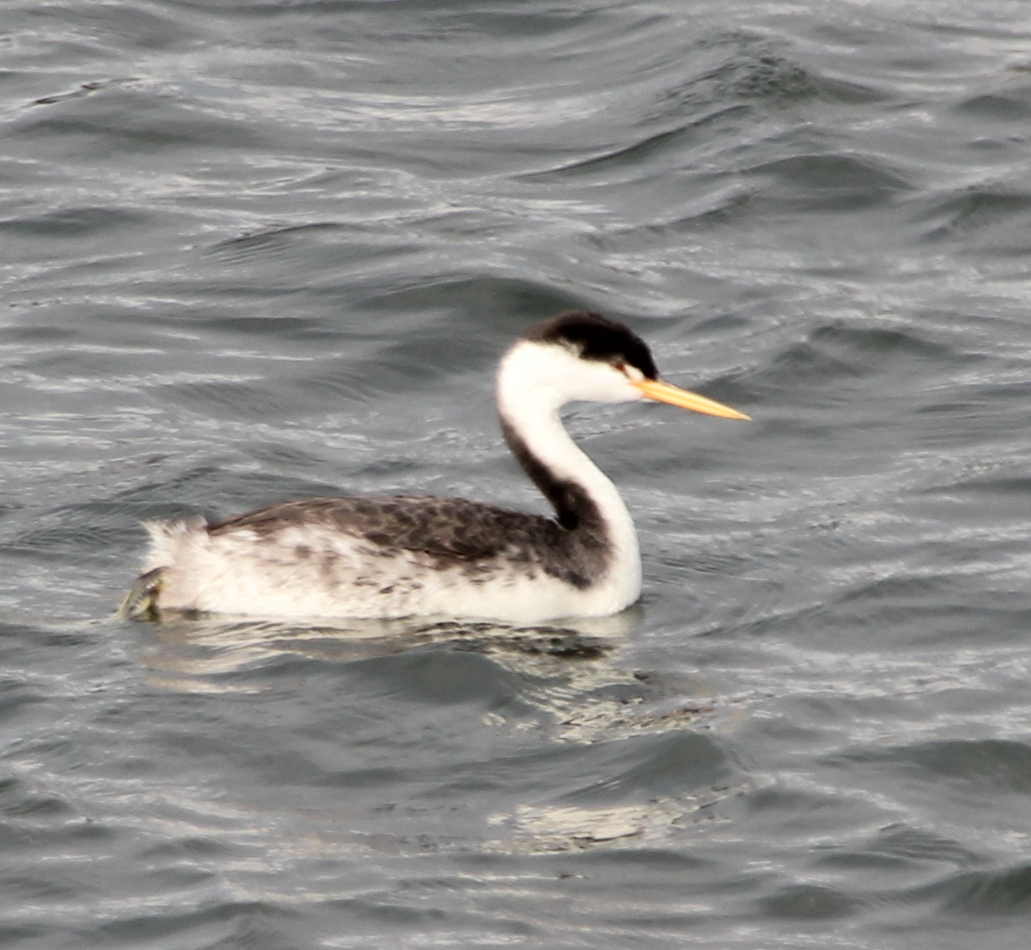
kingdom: Animalia
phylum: Chordata
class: Aves
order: Podicipediformes
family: Podicipedidae
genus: Aechmophorus
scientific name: Aechmophorus clarkii
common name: Clark's grebe
